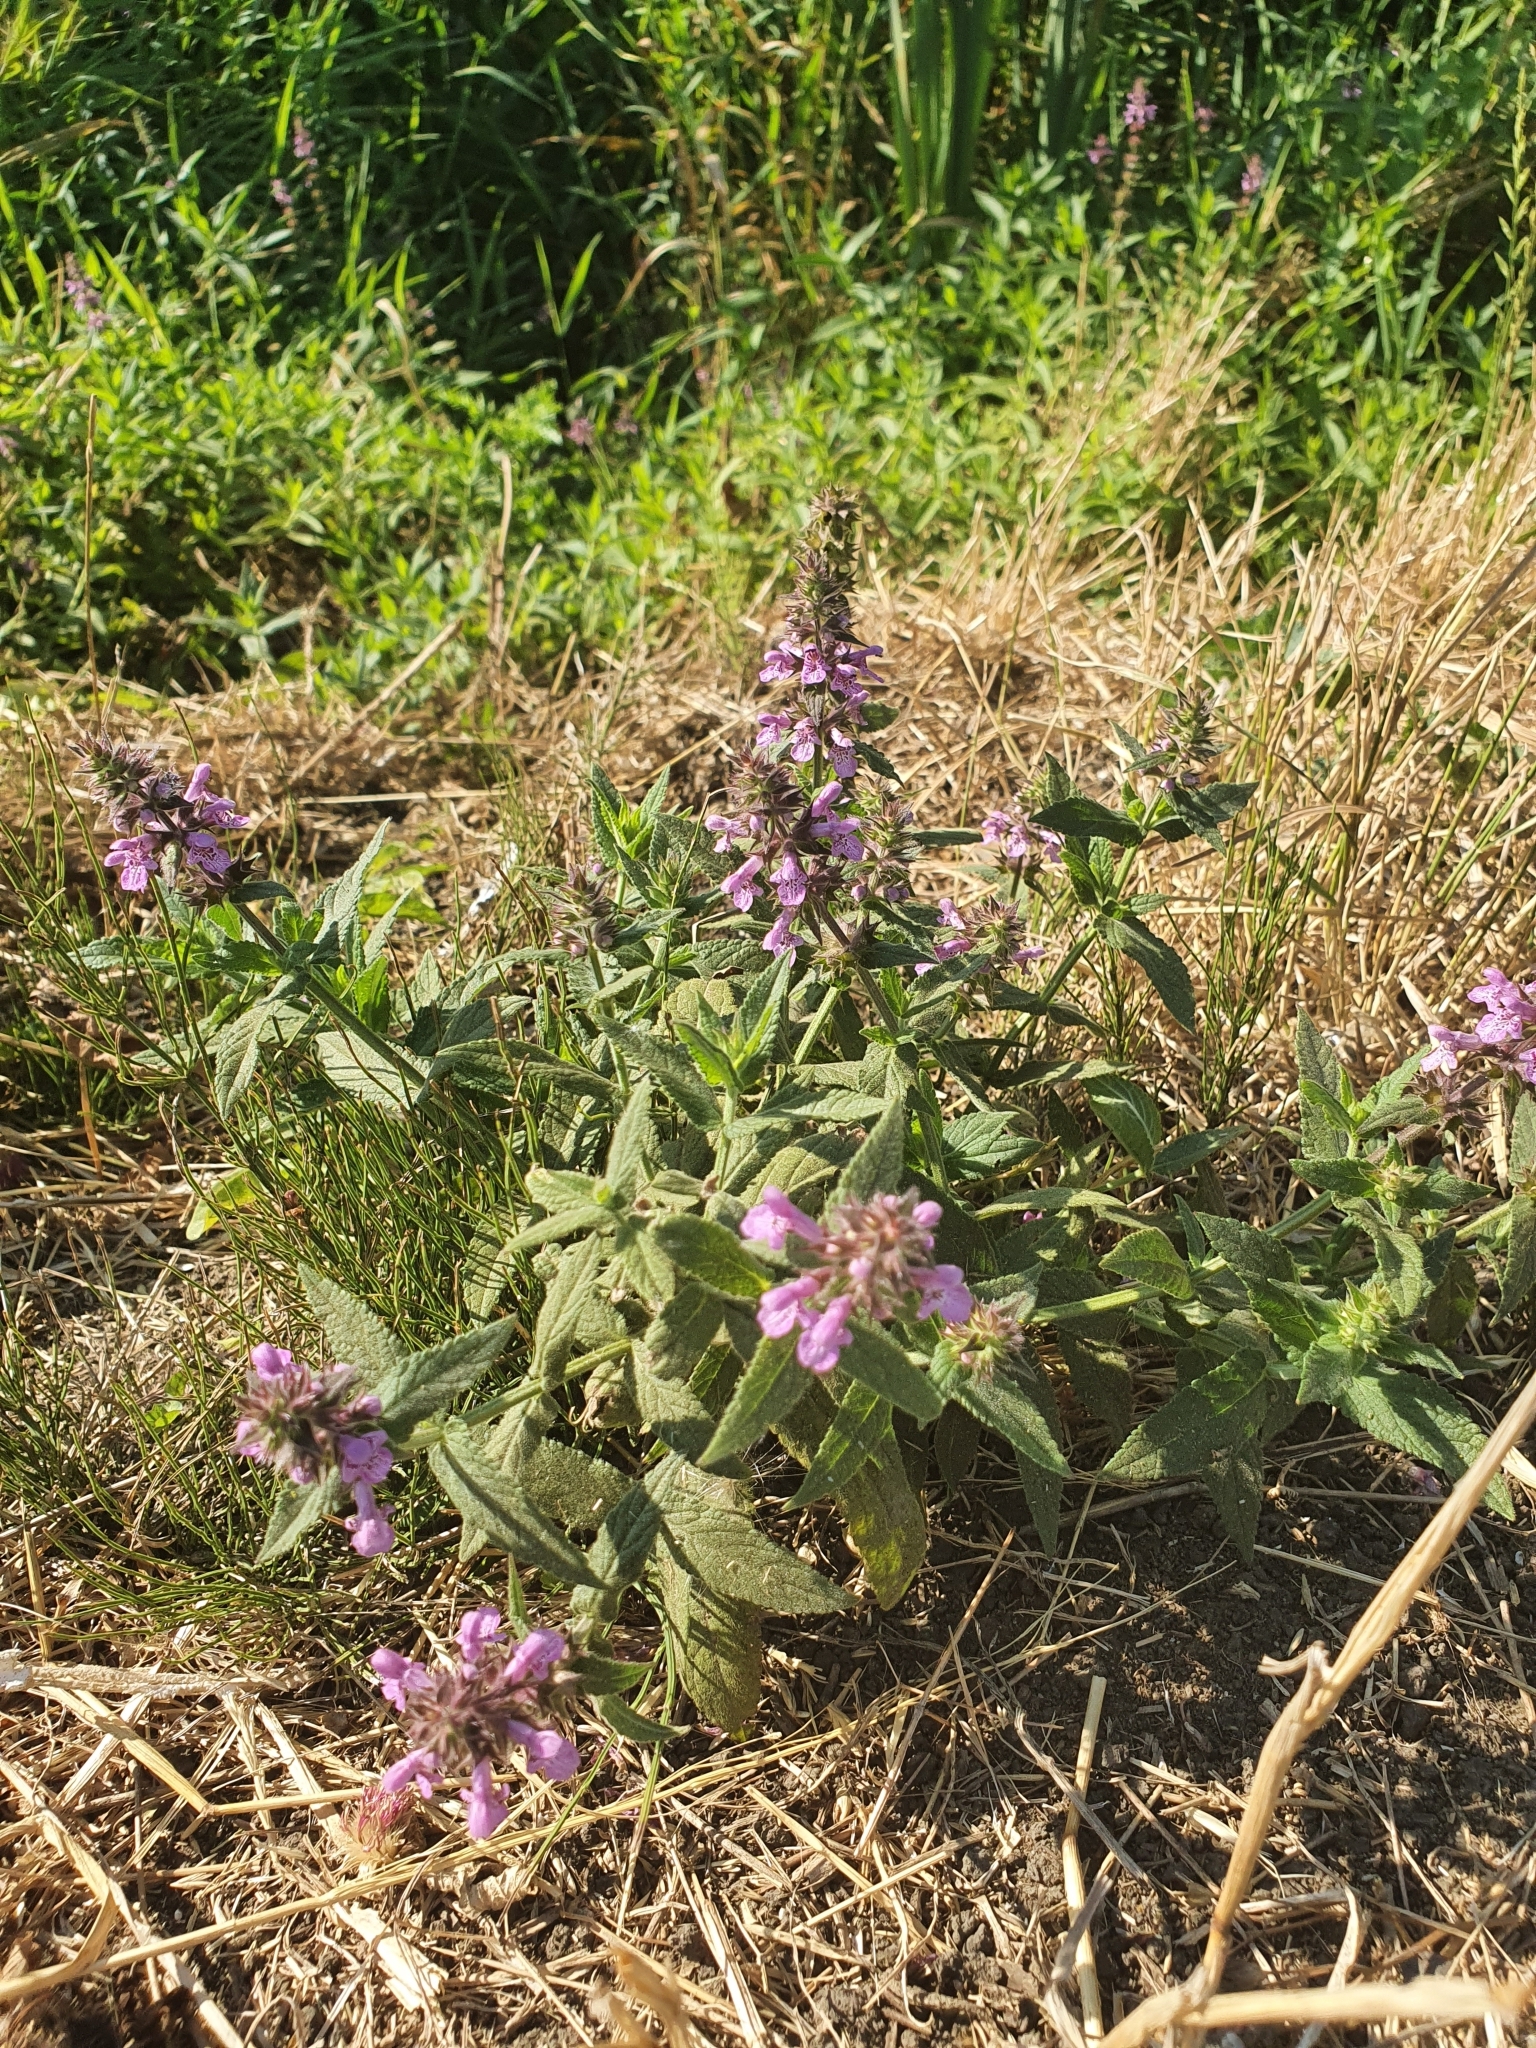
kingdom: Plantae
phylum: Tracheophyta
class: Magnoliopsida
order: Lamiales
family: Lamiaceae
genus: Stachys
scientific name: Stachys palustris
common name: Marsh woundwort
